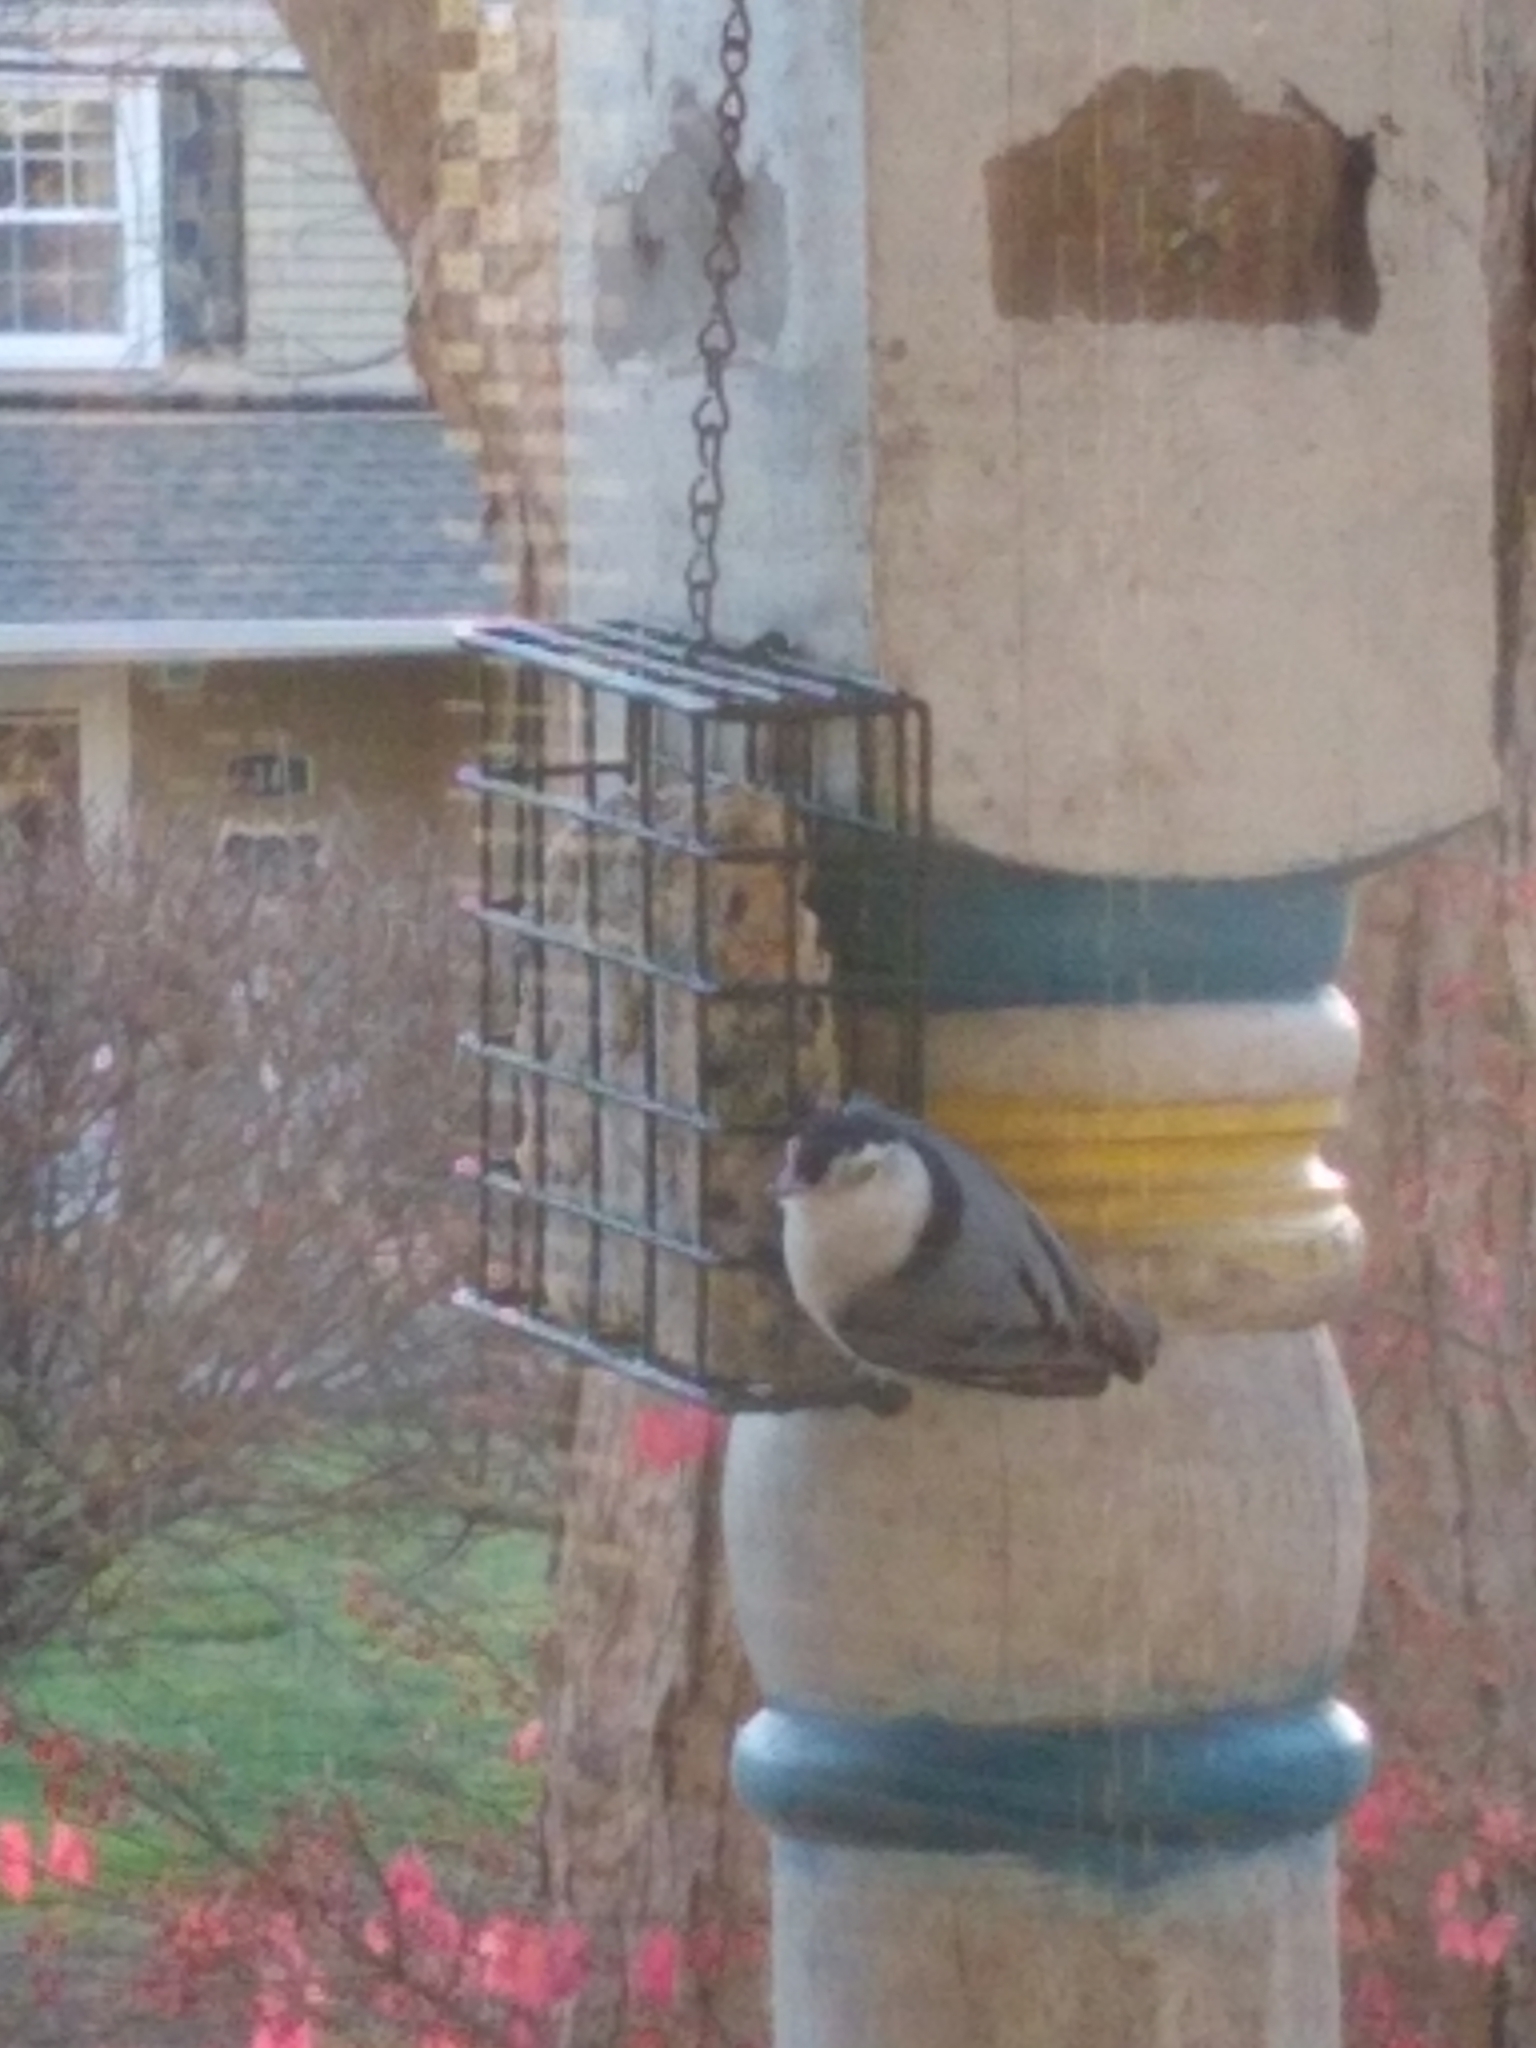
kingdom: Animalia
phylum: Chordata
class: Aves
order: Passeriformes
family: Sittidae
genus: Sitta
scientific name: Sitta carolinensis
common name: White-breasted nuthatch
